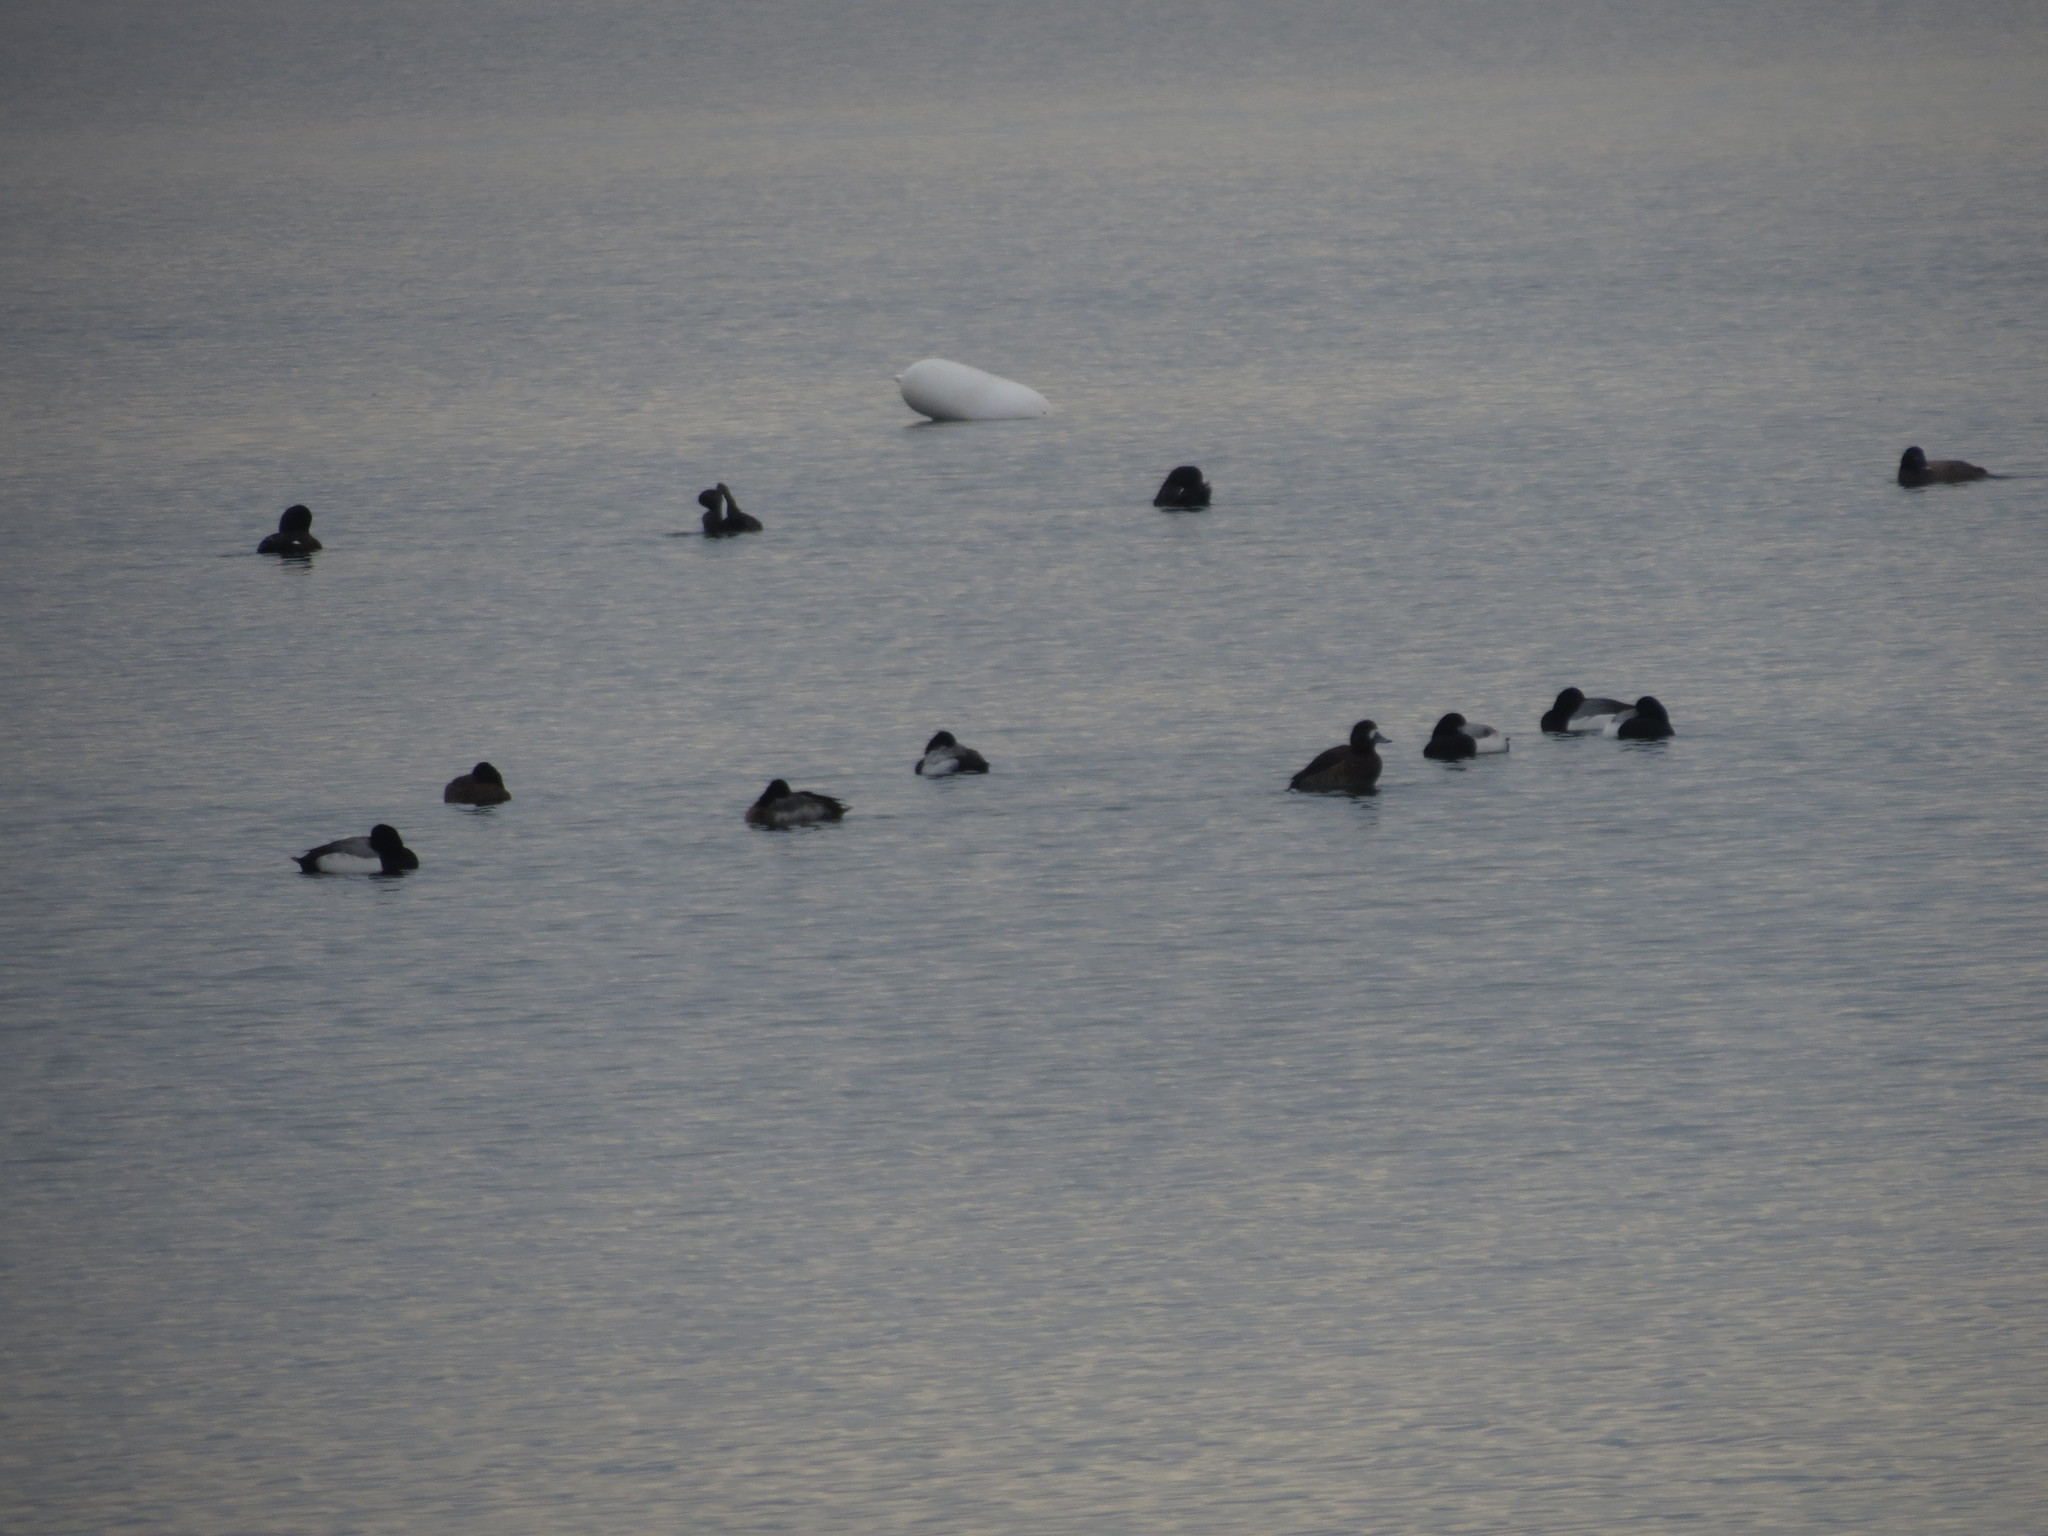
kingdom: Animalia
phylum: Chordata
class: Aves
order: Anseriformes
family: Anatidae
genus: Aythya
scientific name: Aythya affinis
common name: Lesser scaup
